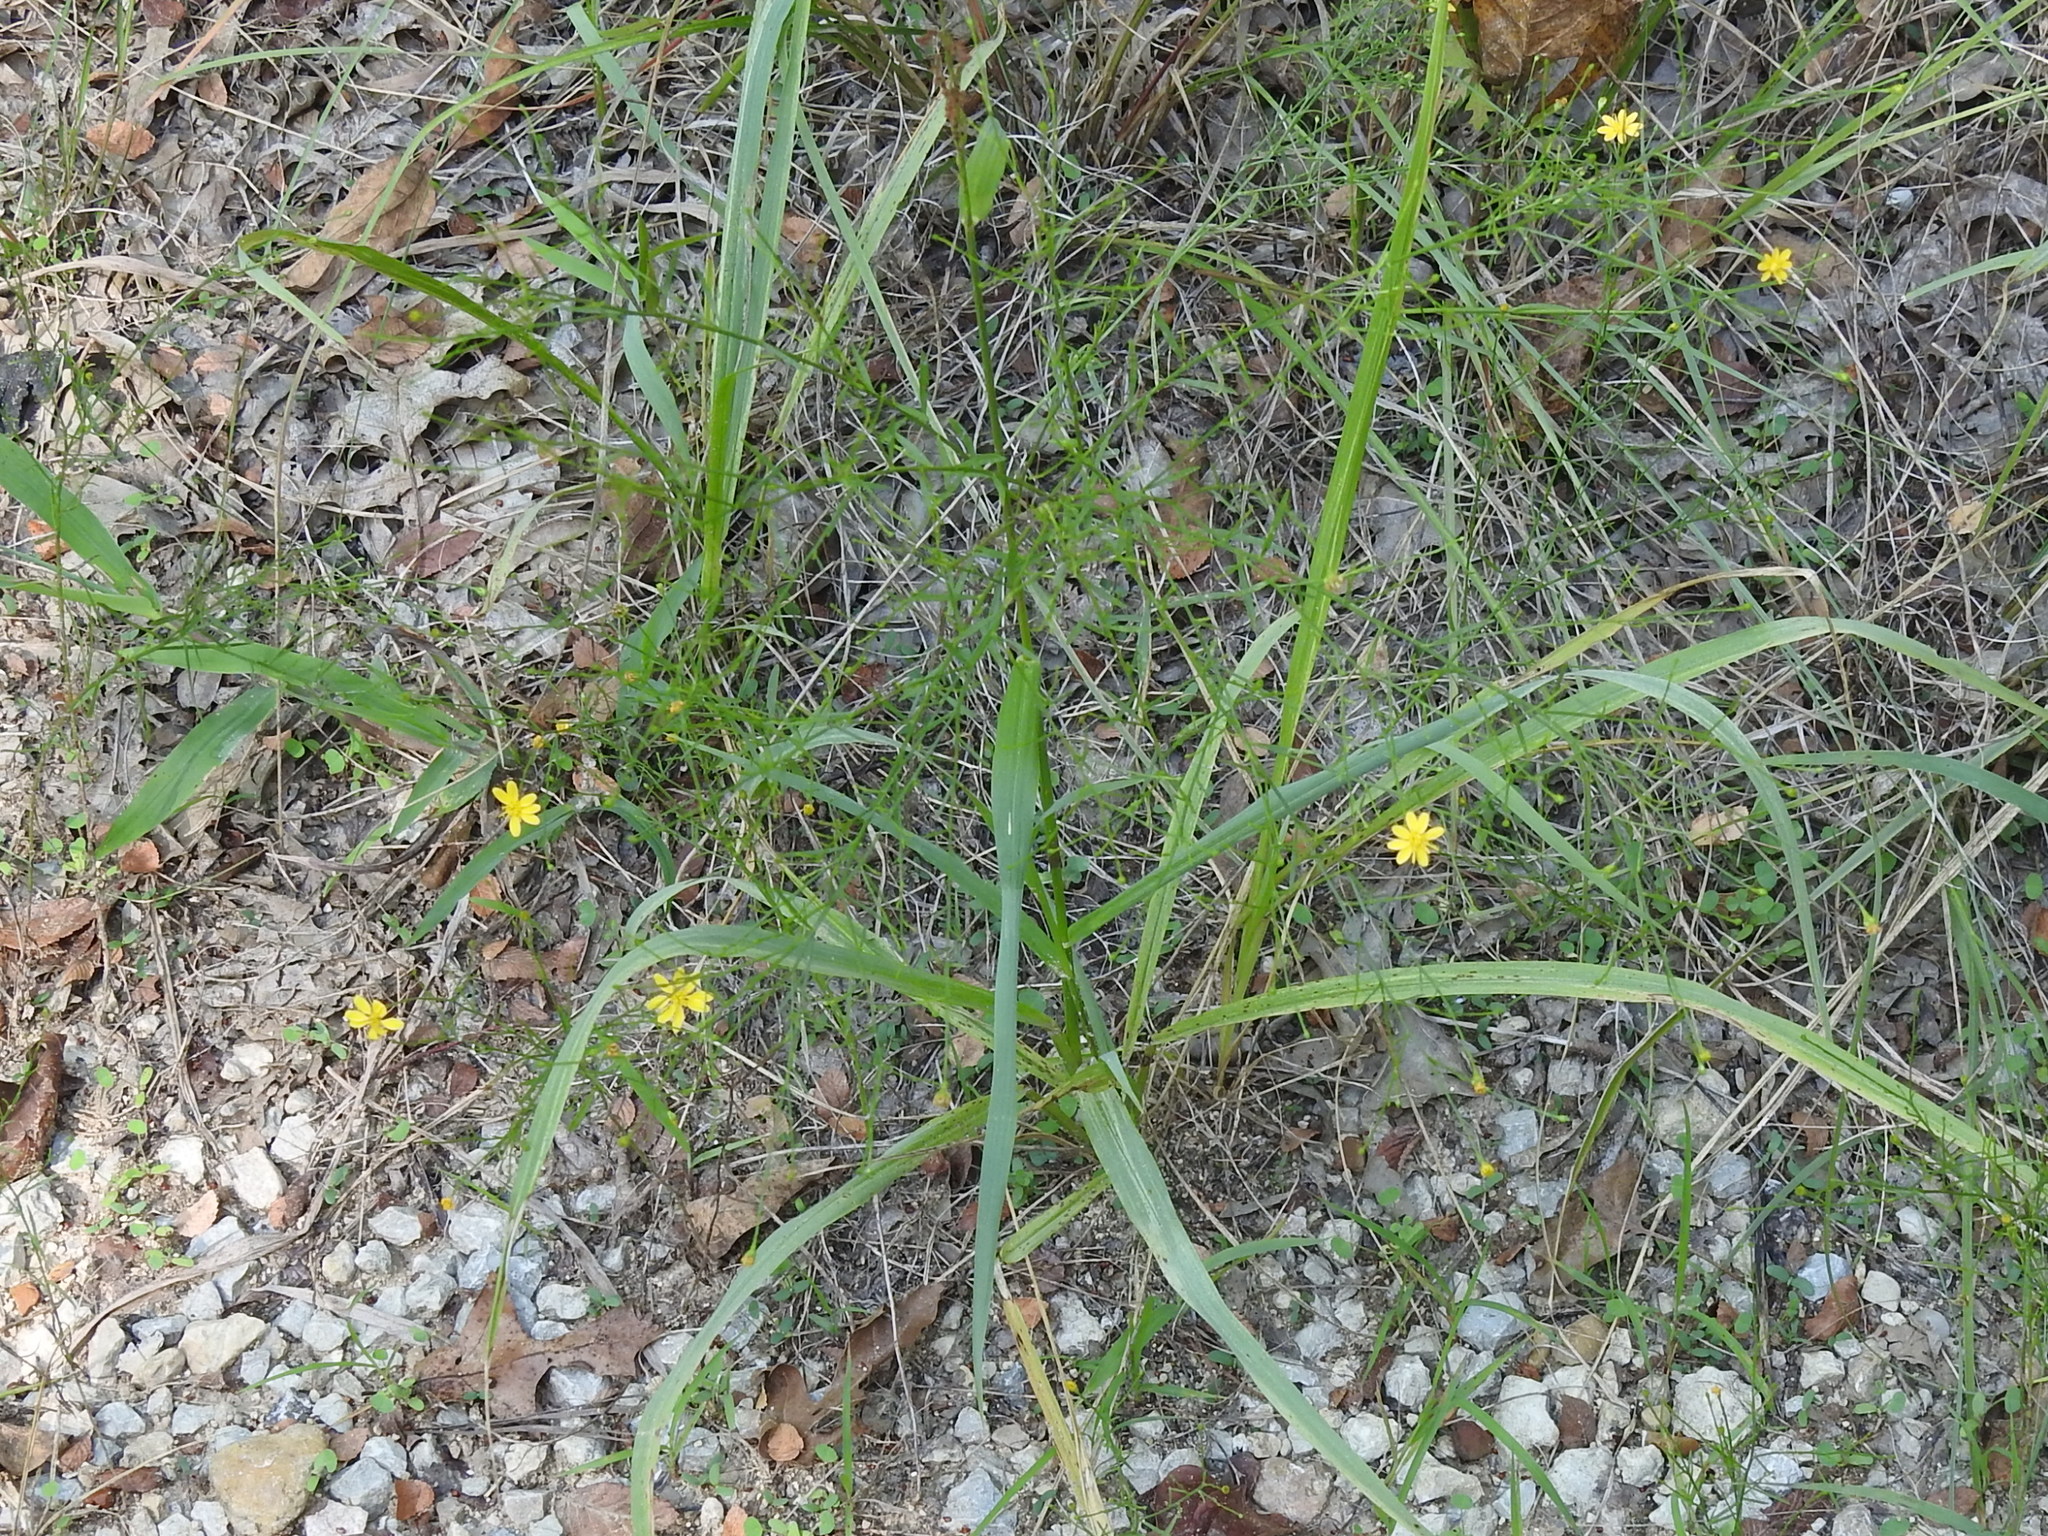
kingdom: Plantae
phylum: Tracheophyta
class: Magnoliopsida
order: Asterales
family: Asteraceae
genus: Gutierrezia
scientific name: Gutierrezia texana
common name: Texas snakeweed
